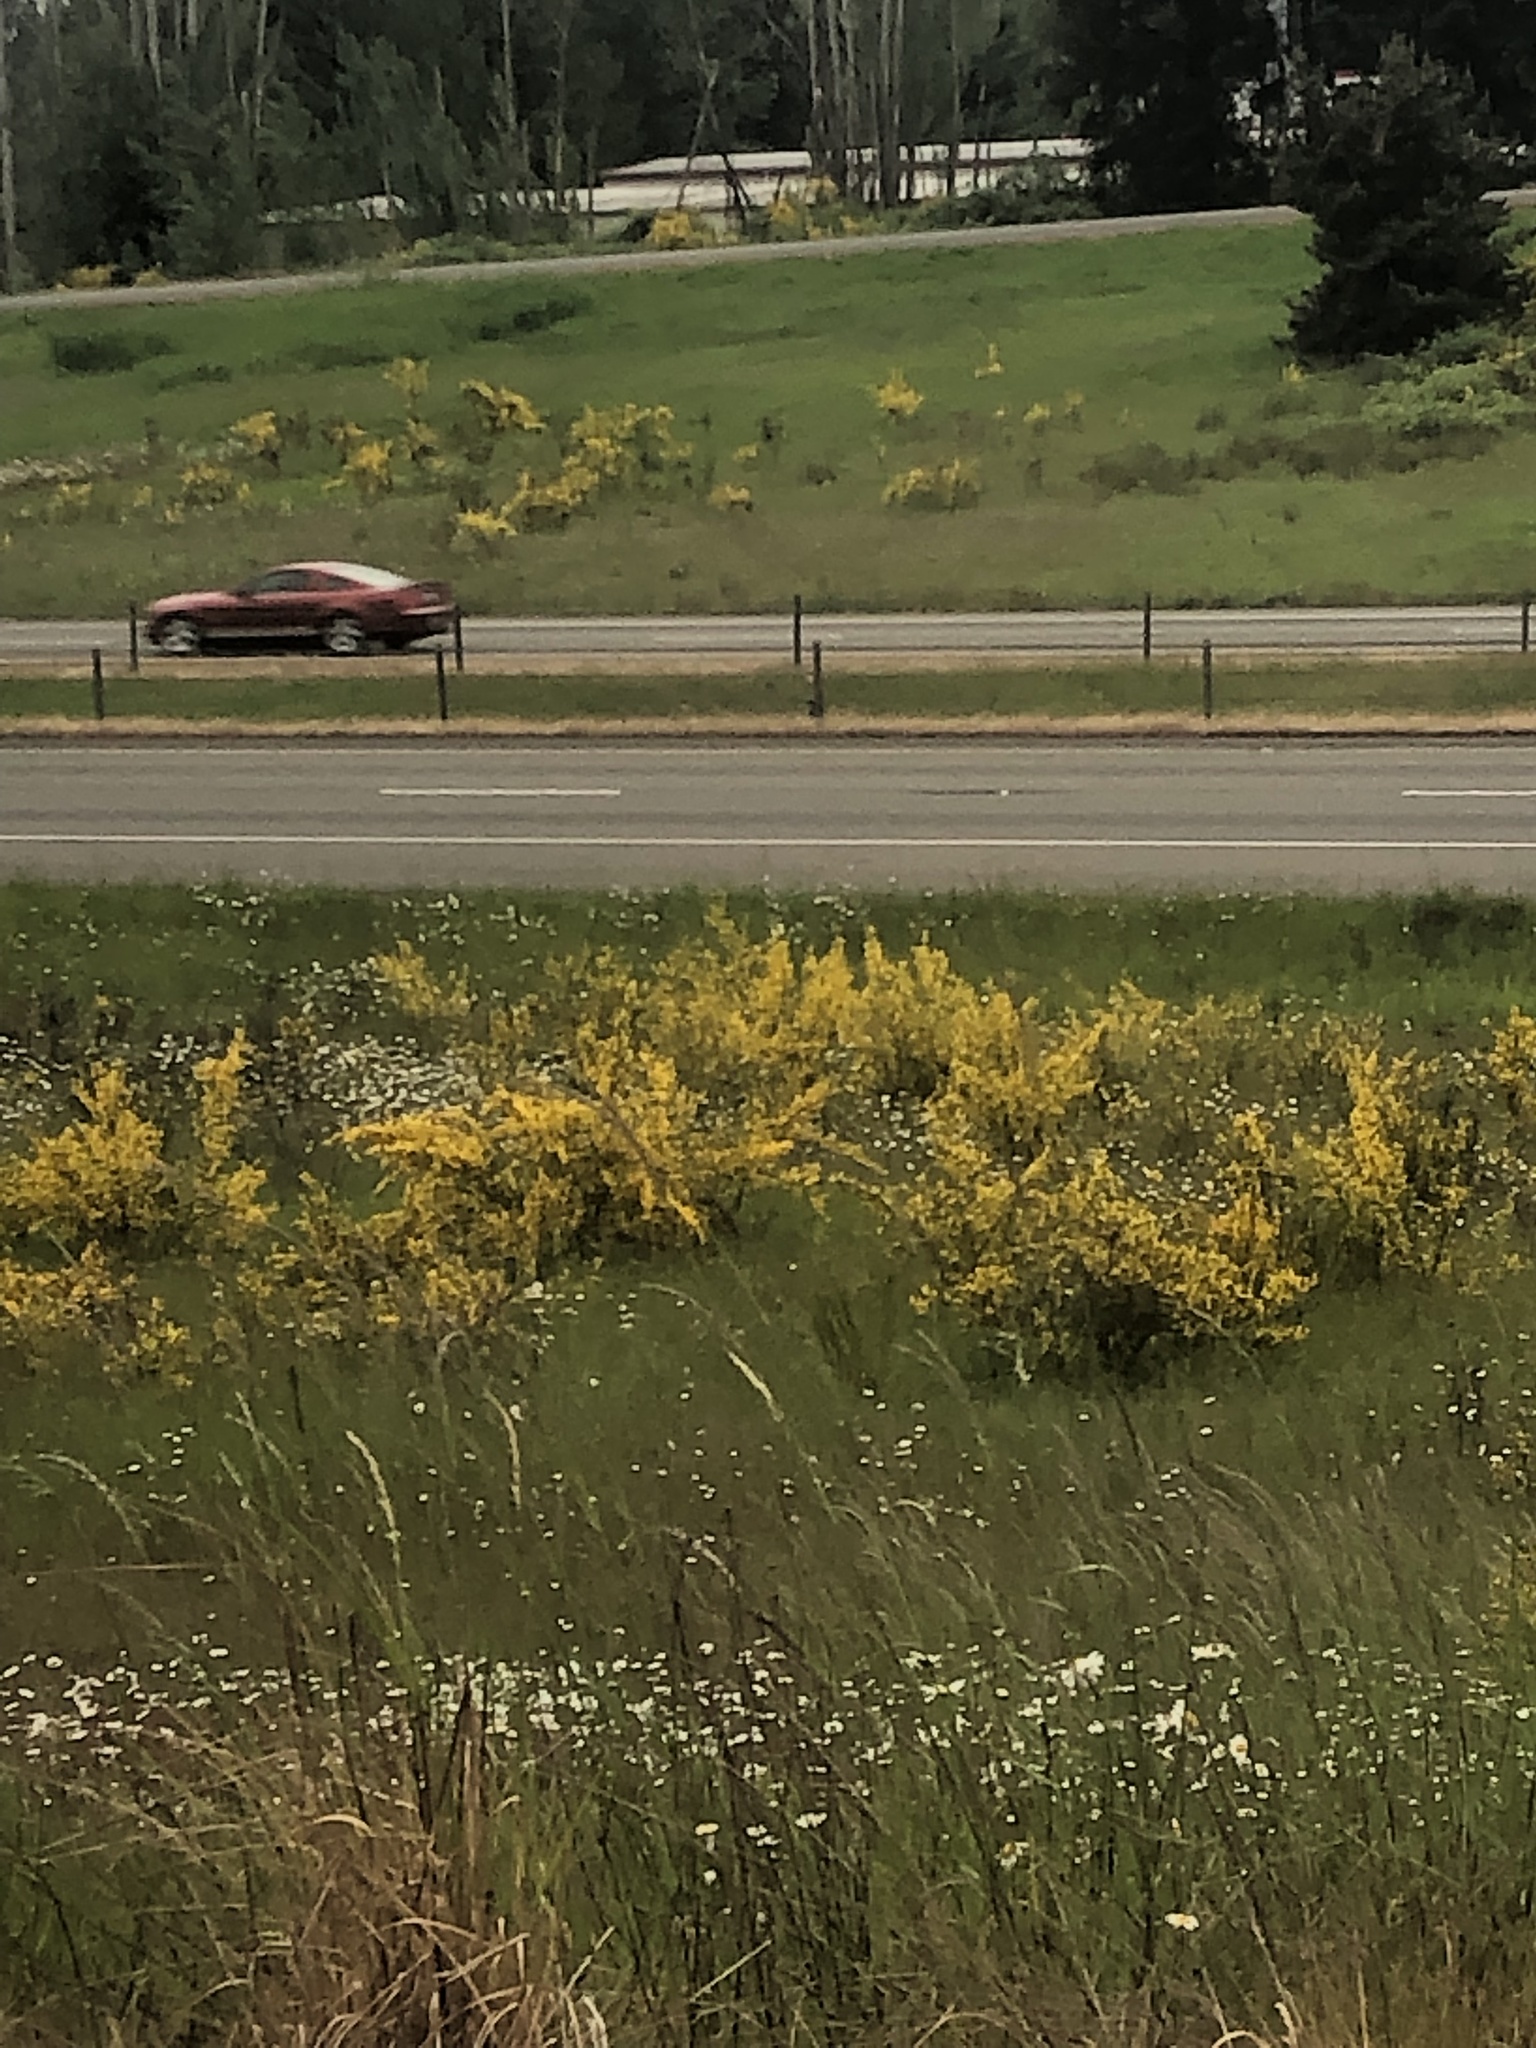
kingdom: Plantae
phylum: Tracheophyta
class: Magnoliopsida
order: Fabales
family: Fabaceae
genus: Cytisus
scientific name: Cytisus scoparius
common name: Scotch broom
